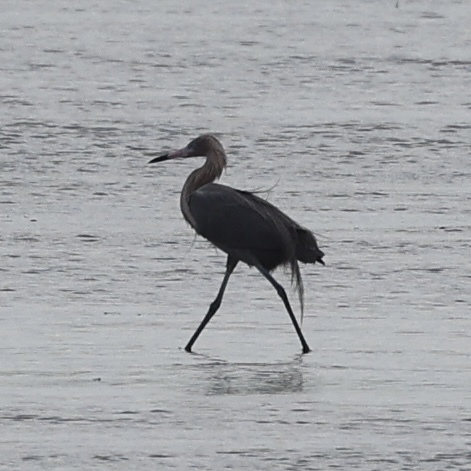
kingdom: Animalia
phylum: Chordata
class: Aves
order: Pelecaniformes
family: Ardeidae
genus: Egretta
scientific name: Egretta rufescens
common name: Reddish egret
